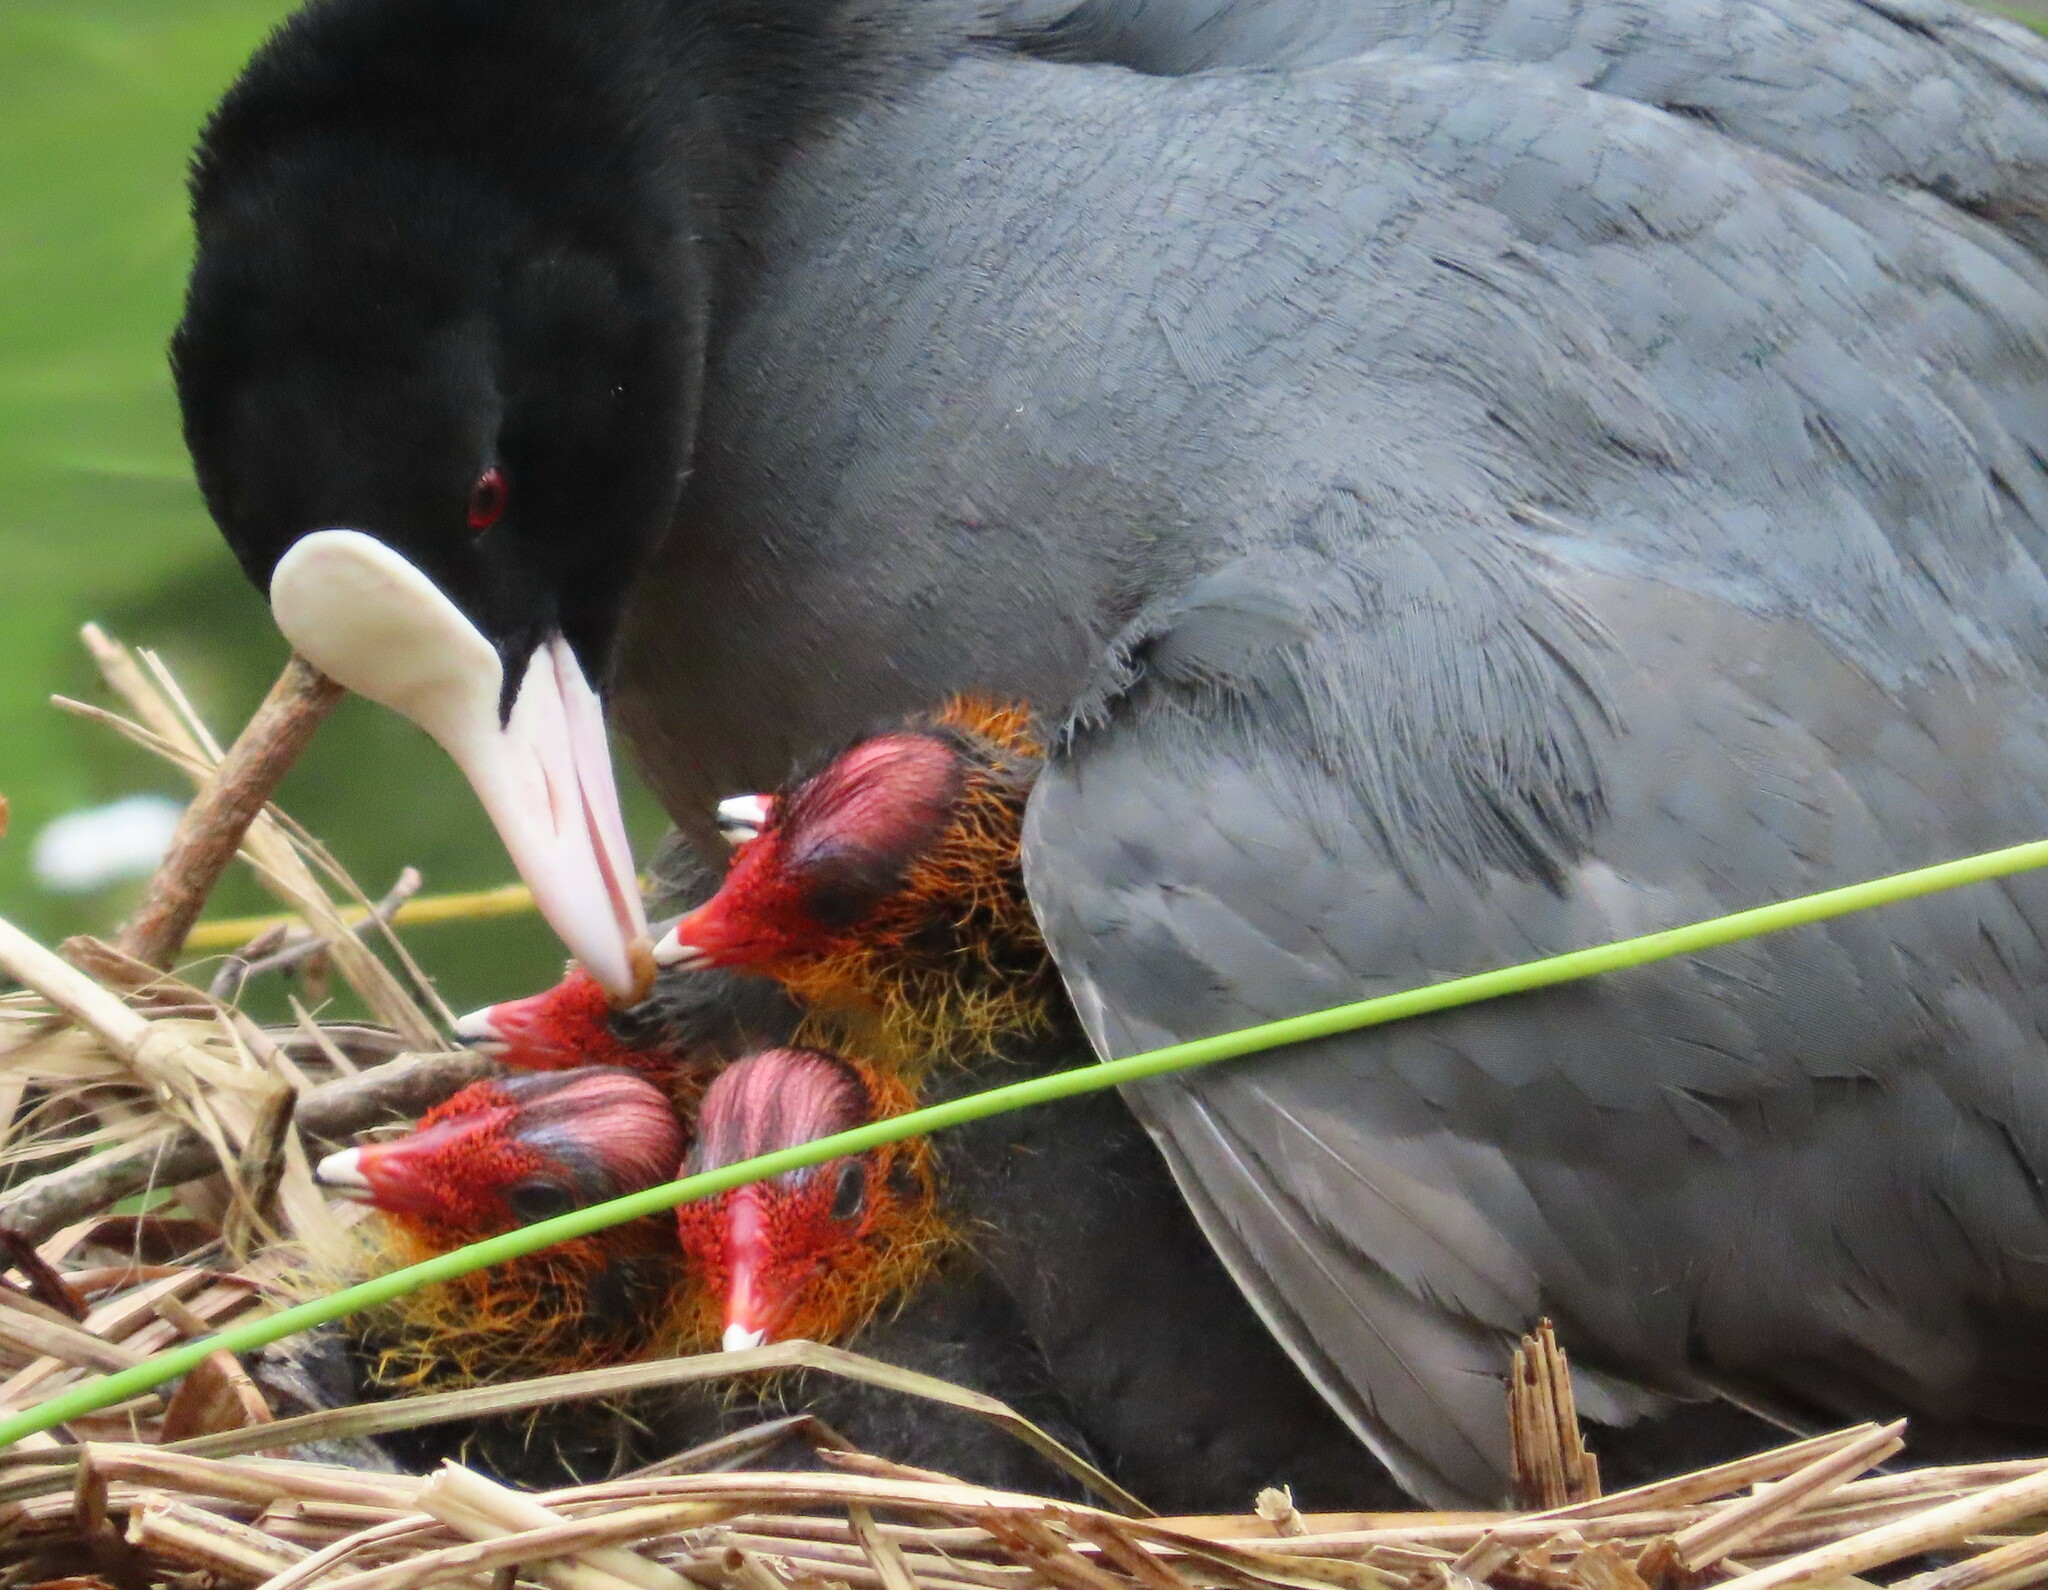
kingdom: Animalia
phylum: Chordata
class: Aves
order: Gruiformes
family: Rallidae
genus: Fulica
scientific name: Fulica atra
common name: Eurasian coot
